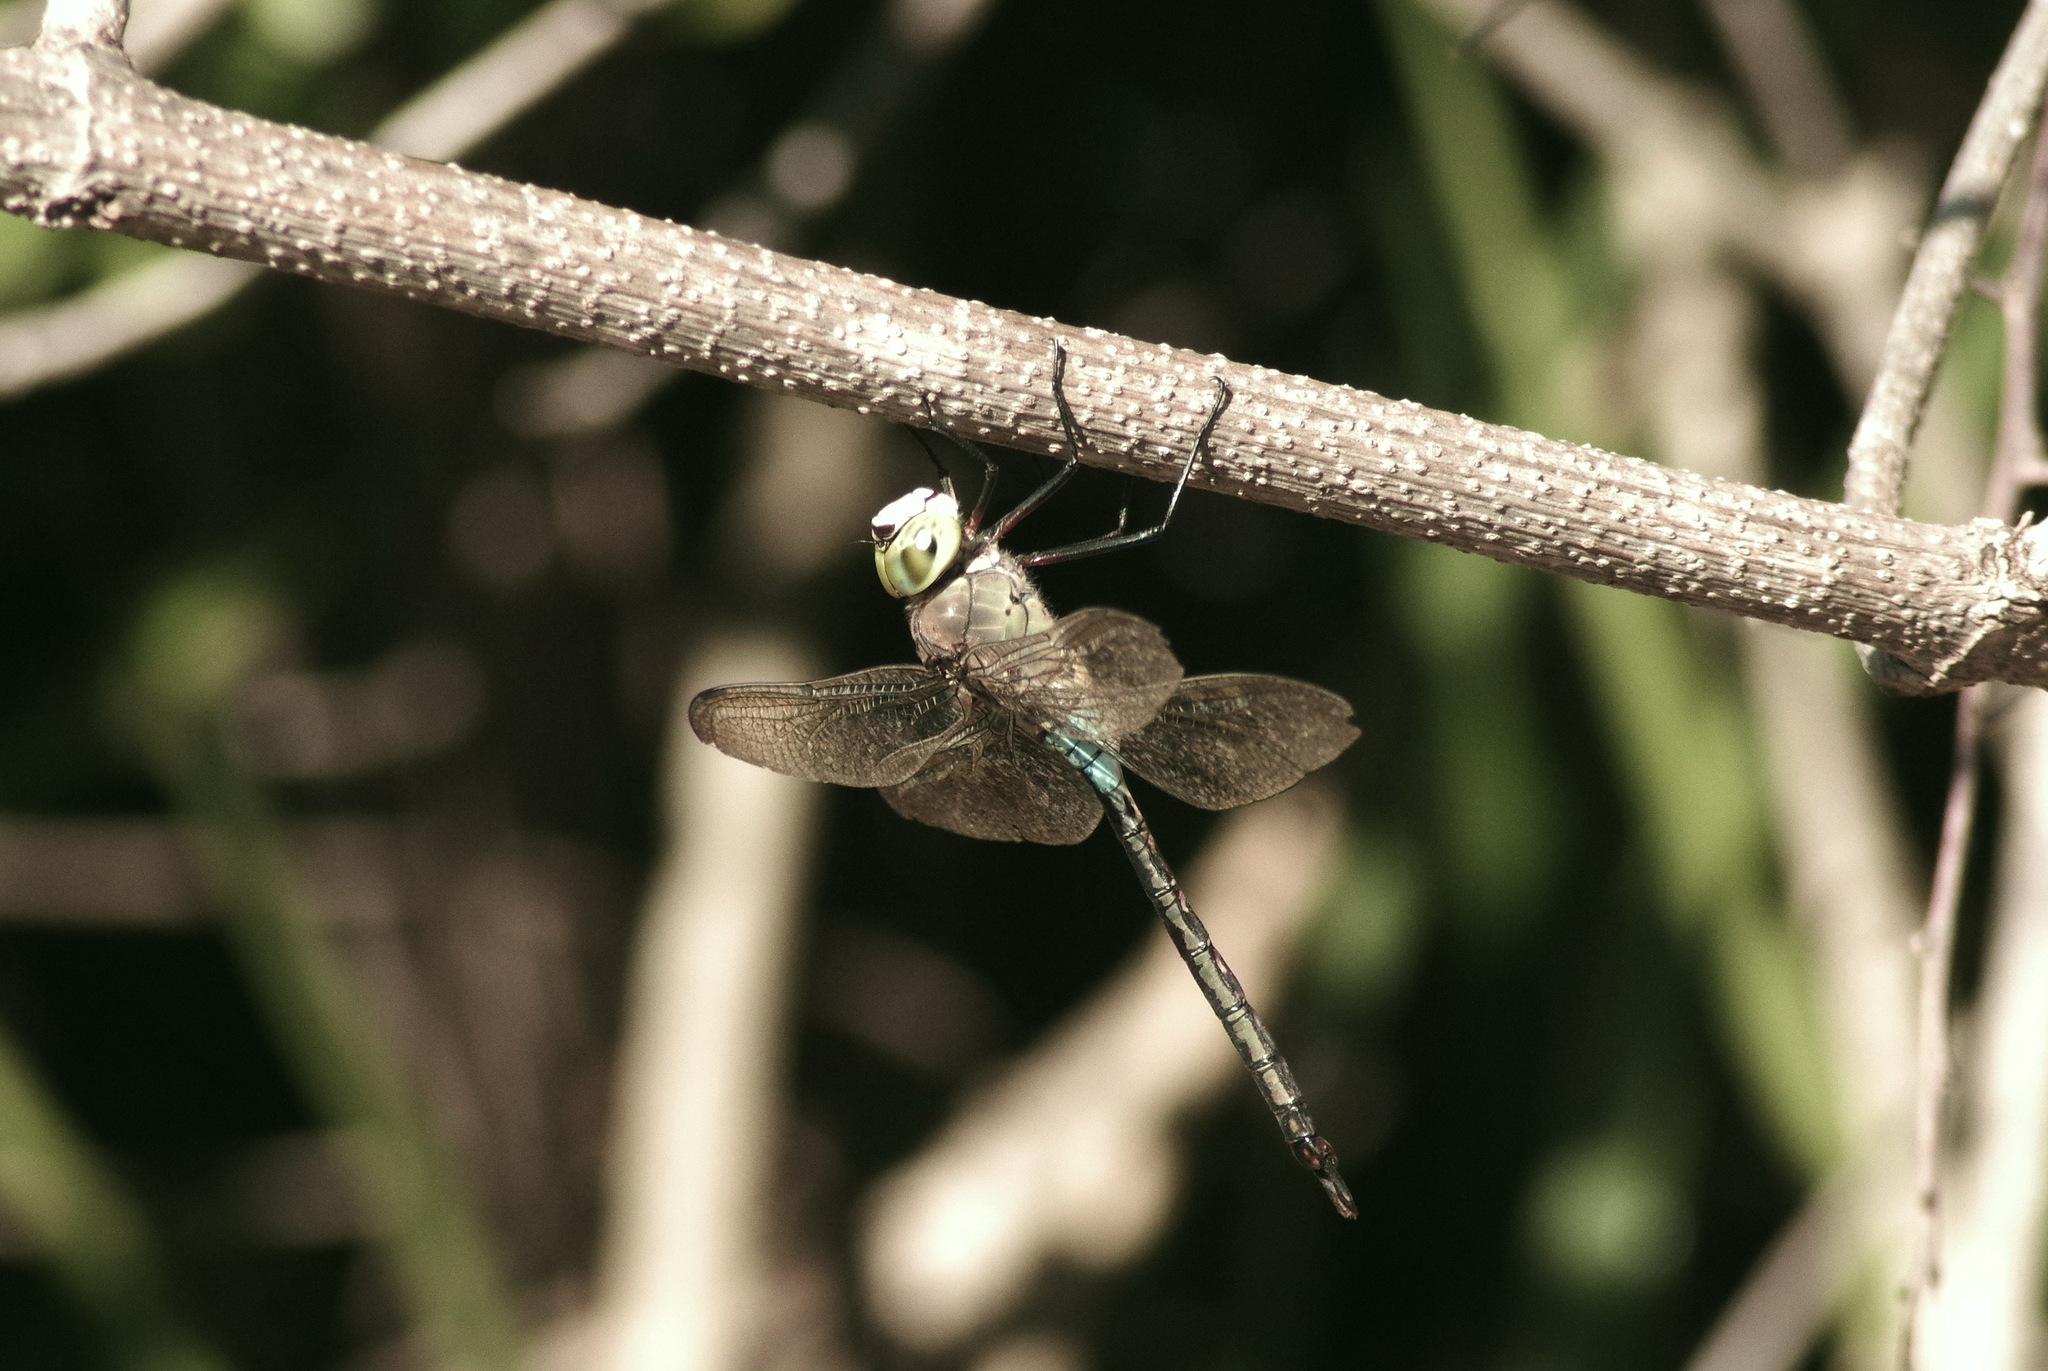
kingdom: Animalia
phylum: Arthropoda
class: Insecta
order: Odonata
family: Aeshnidae
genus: Anax
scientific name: Anax parthenope
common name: Lesser emperor
